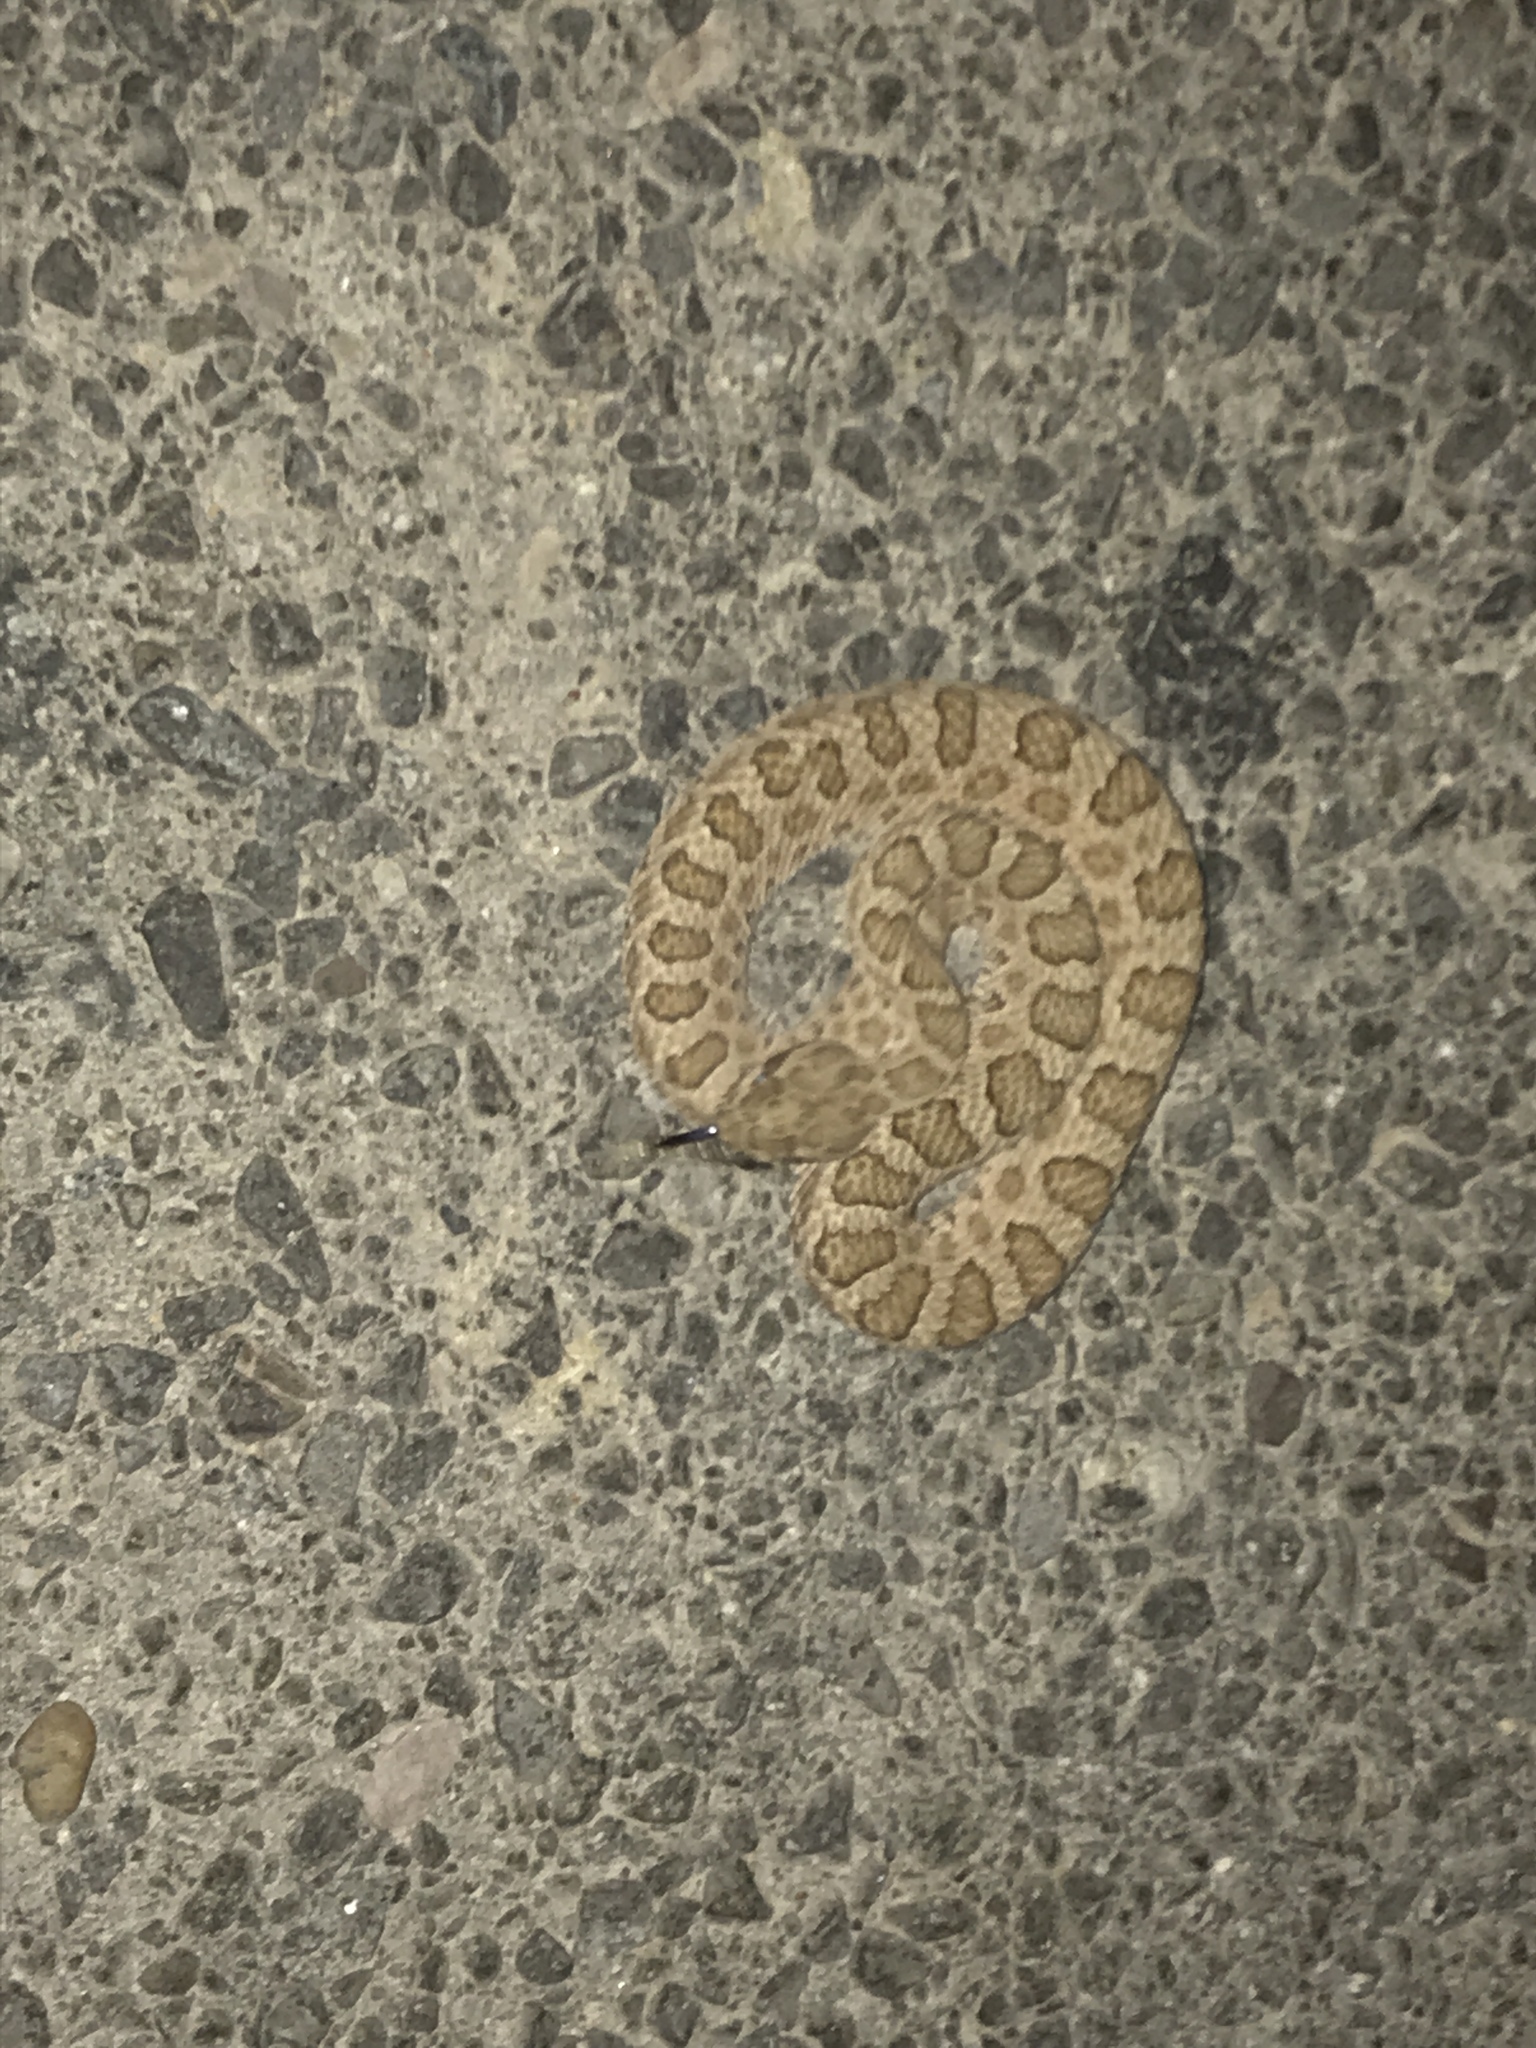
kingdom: Animalia
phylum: Chordata
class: Squamata
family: Viperidae
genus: Crotalus
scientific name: Crotalus oreganus
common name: Abyssus
